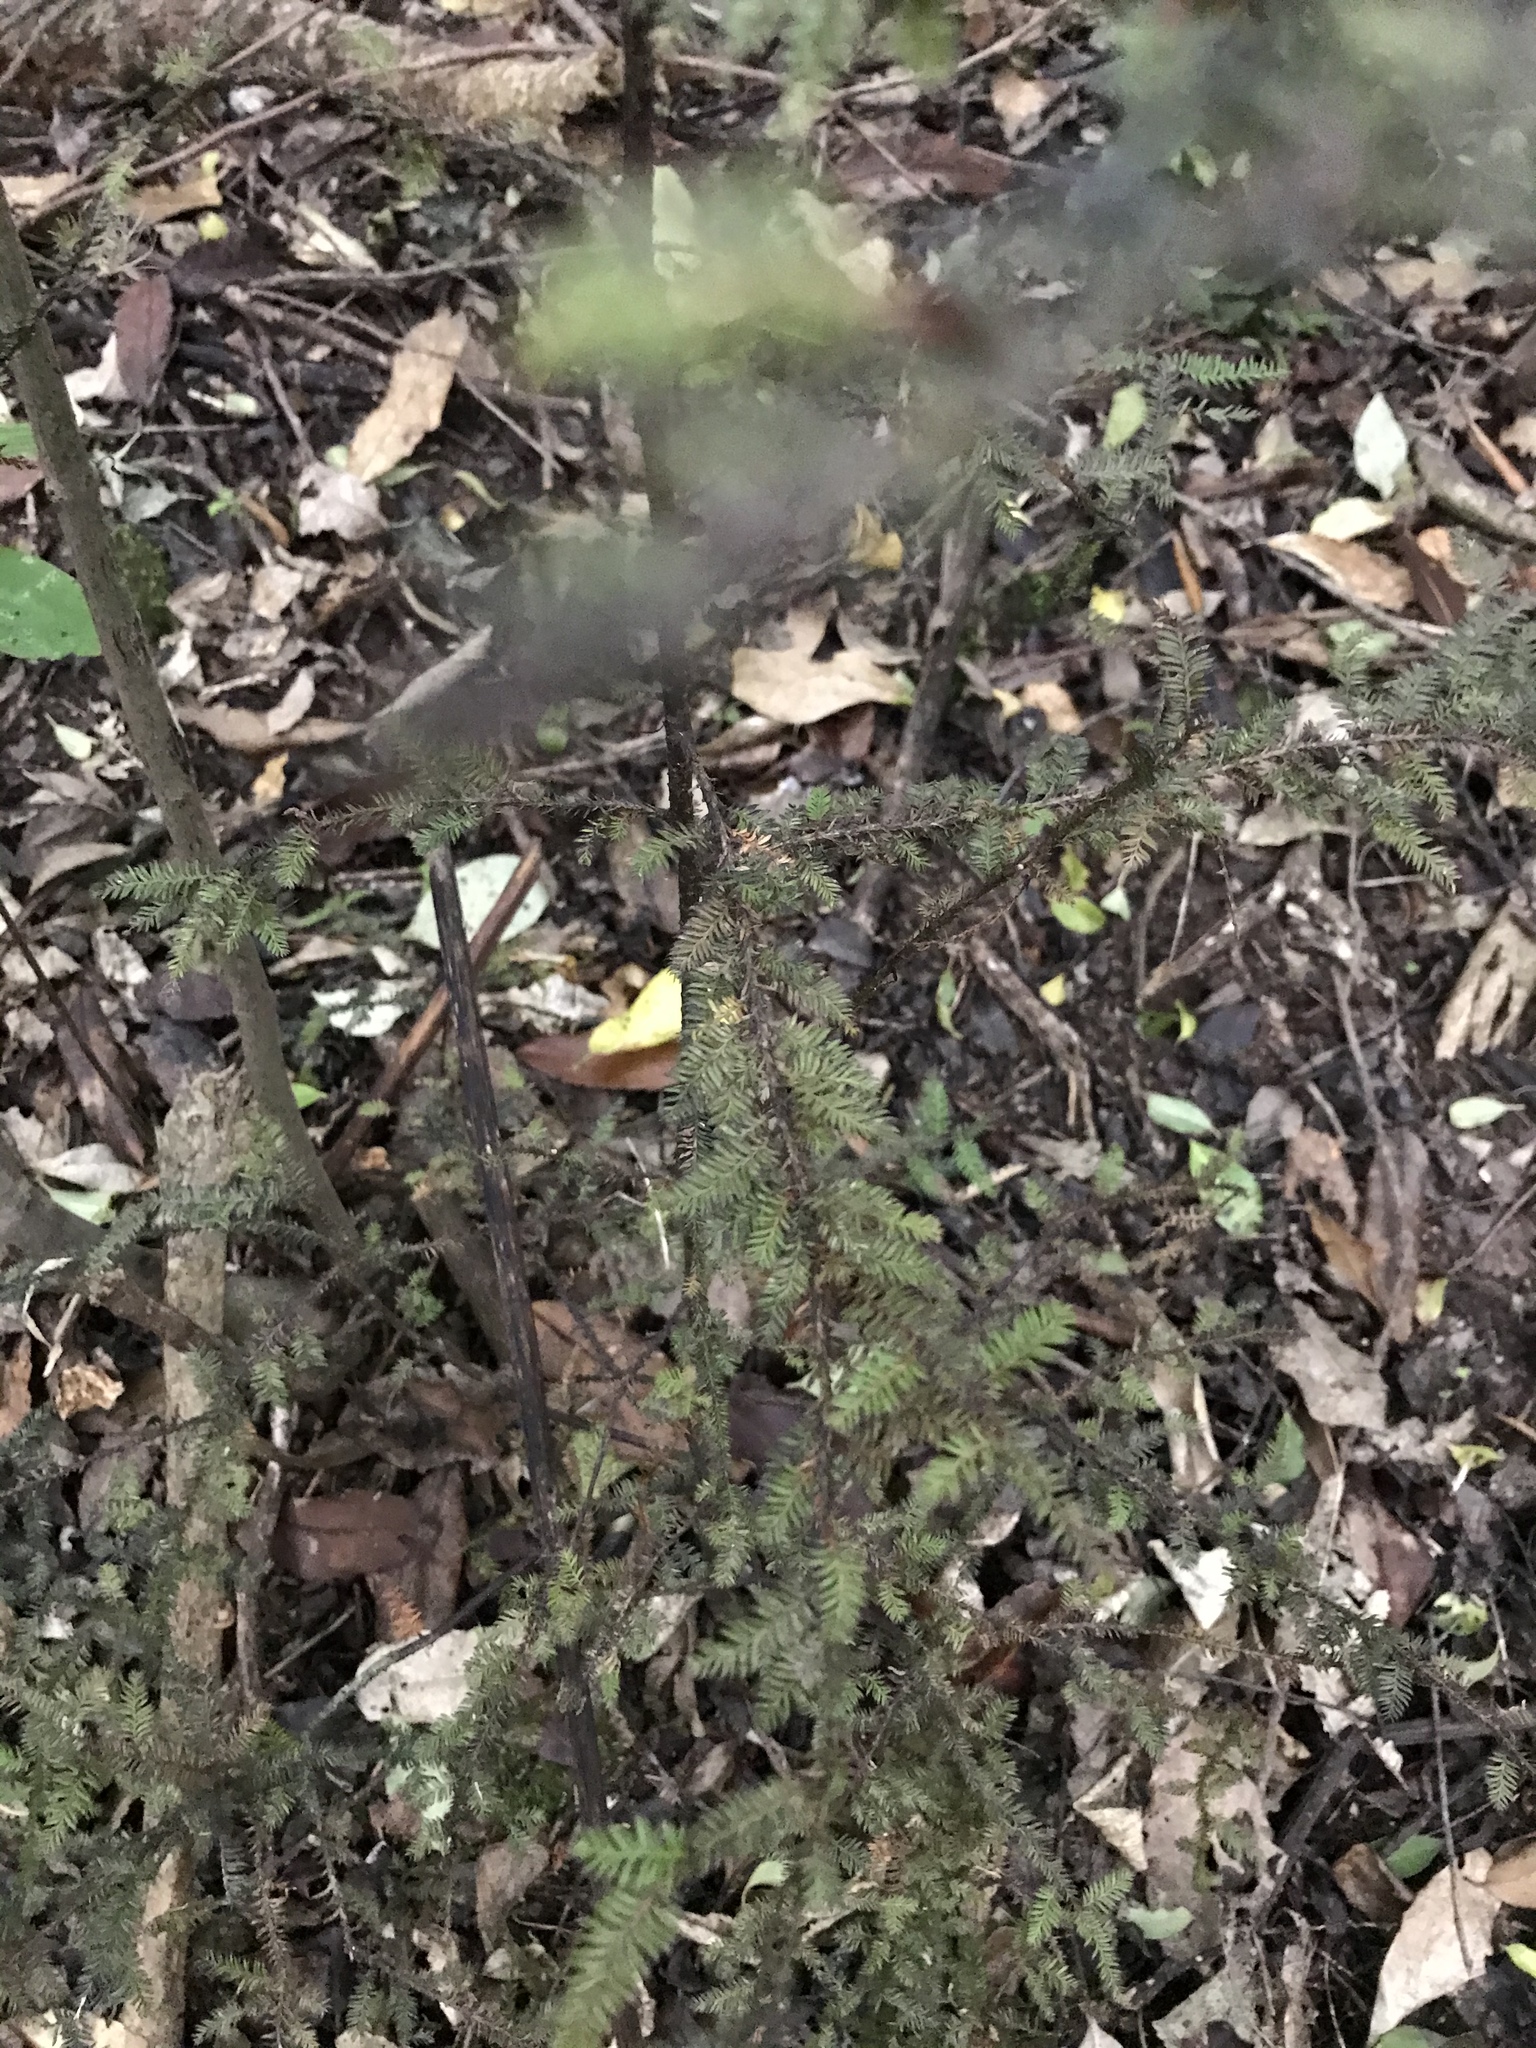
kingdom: Plantae
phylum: Tracheophyta
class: Pinopsida
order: Pinales
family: Podocarpaceae
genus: Dacrycarpus
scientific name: Dacrycarpus dacrydioides
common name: White pine
